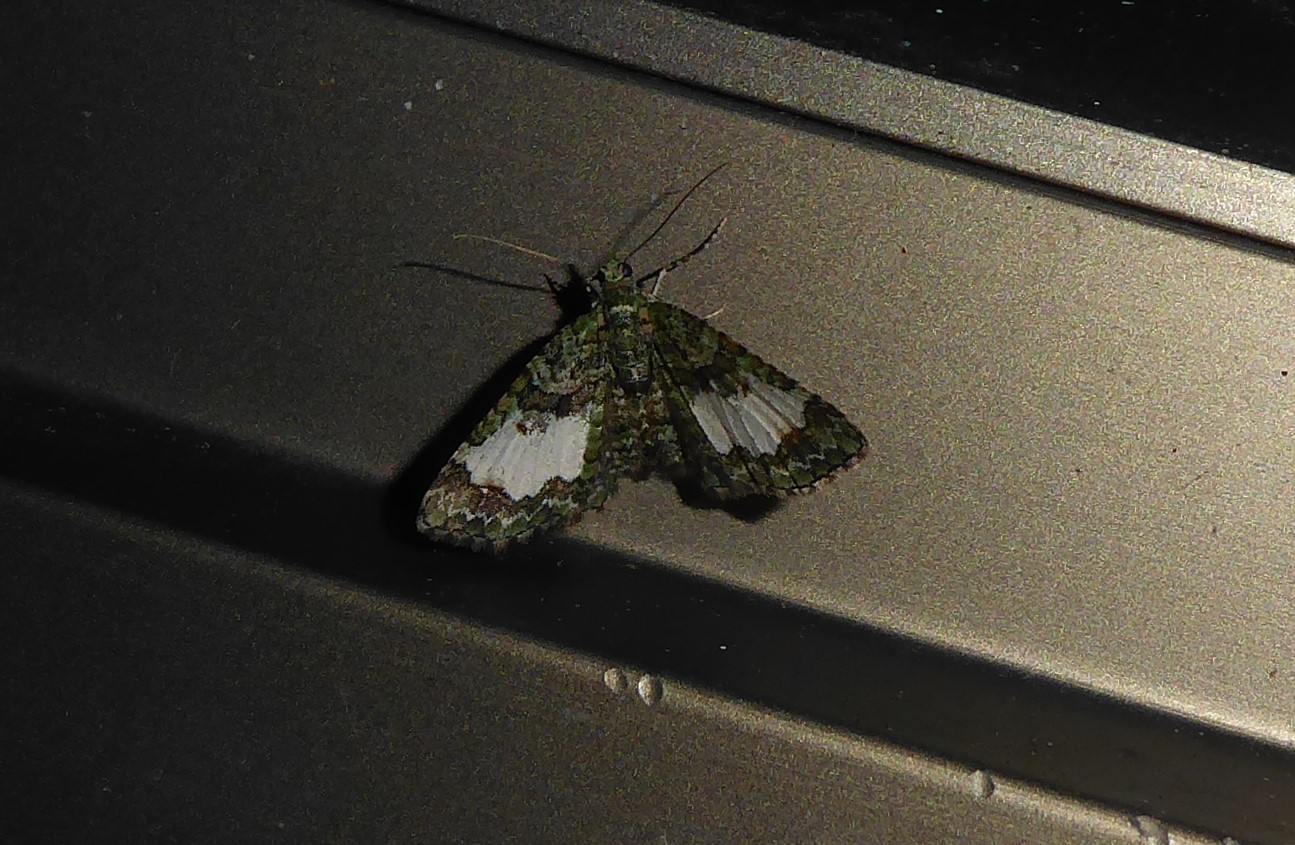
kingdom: Animalia
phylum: Arthropoda
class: Insecta
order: Lepidoptera
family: Geometridae
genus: Idaea
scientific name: Idaea mutanda
